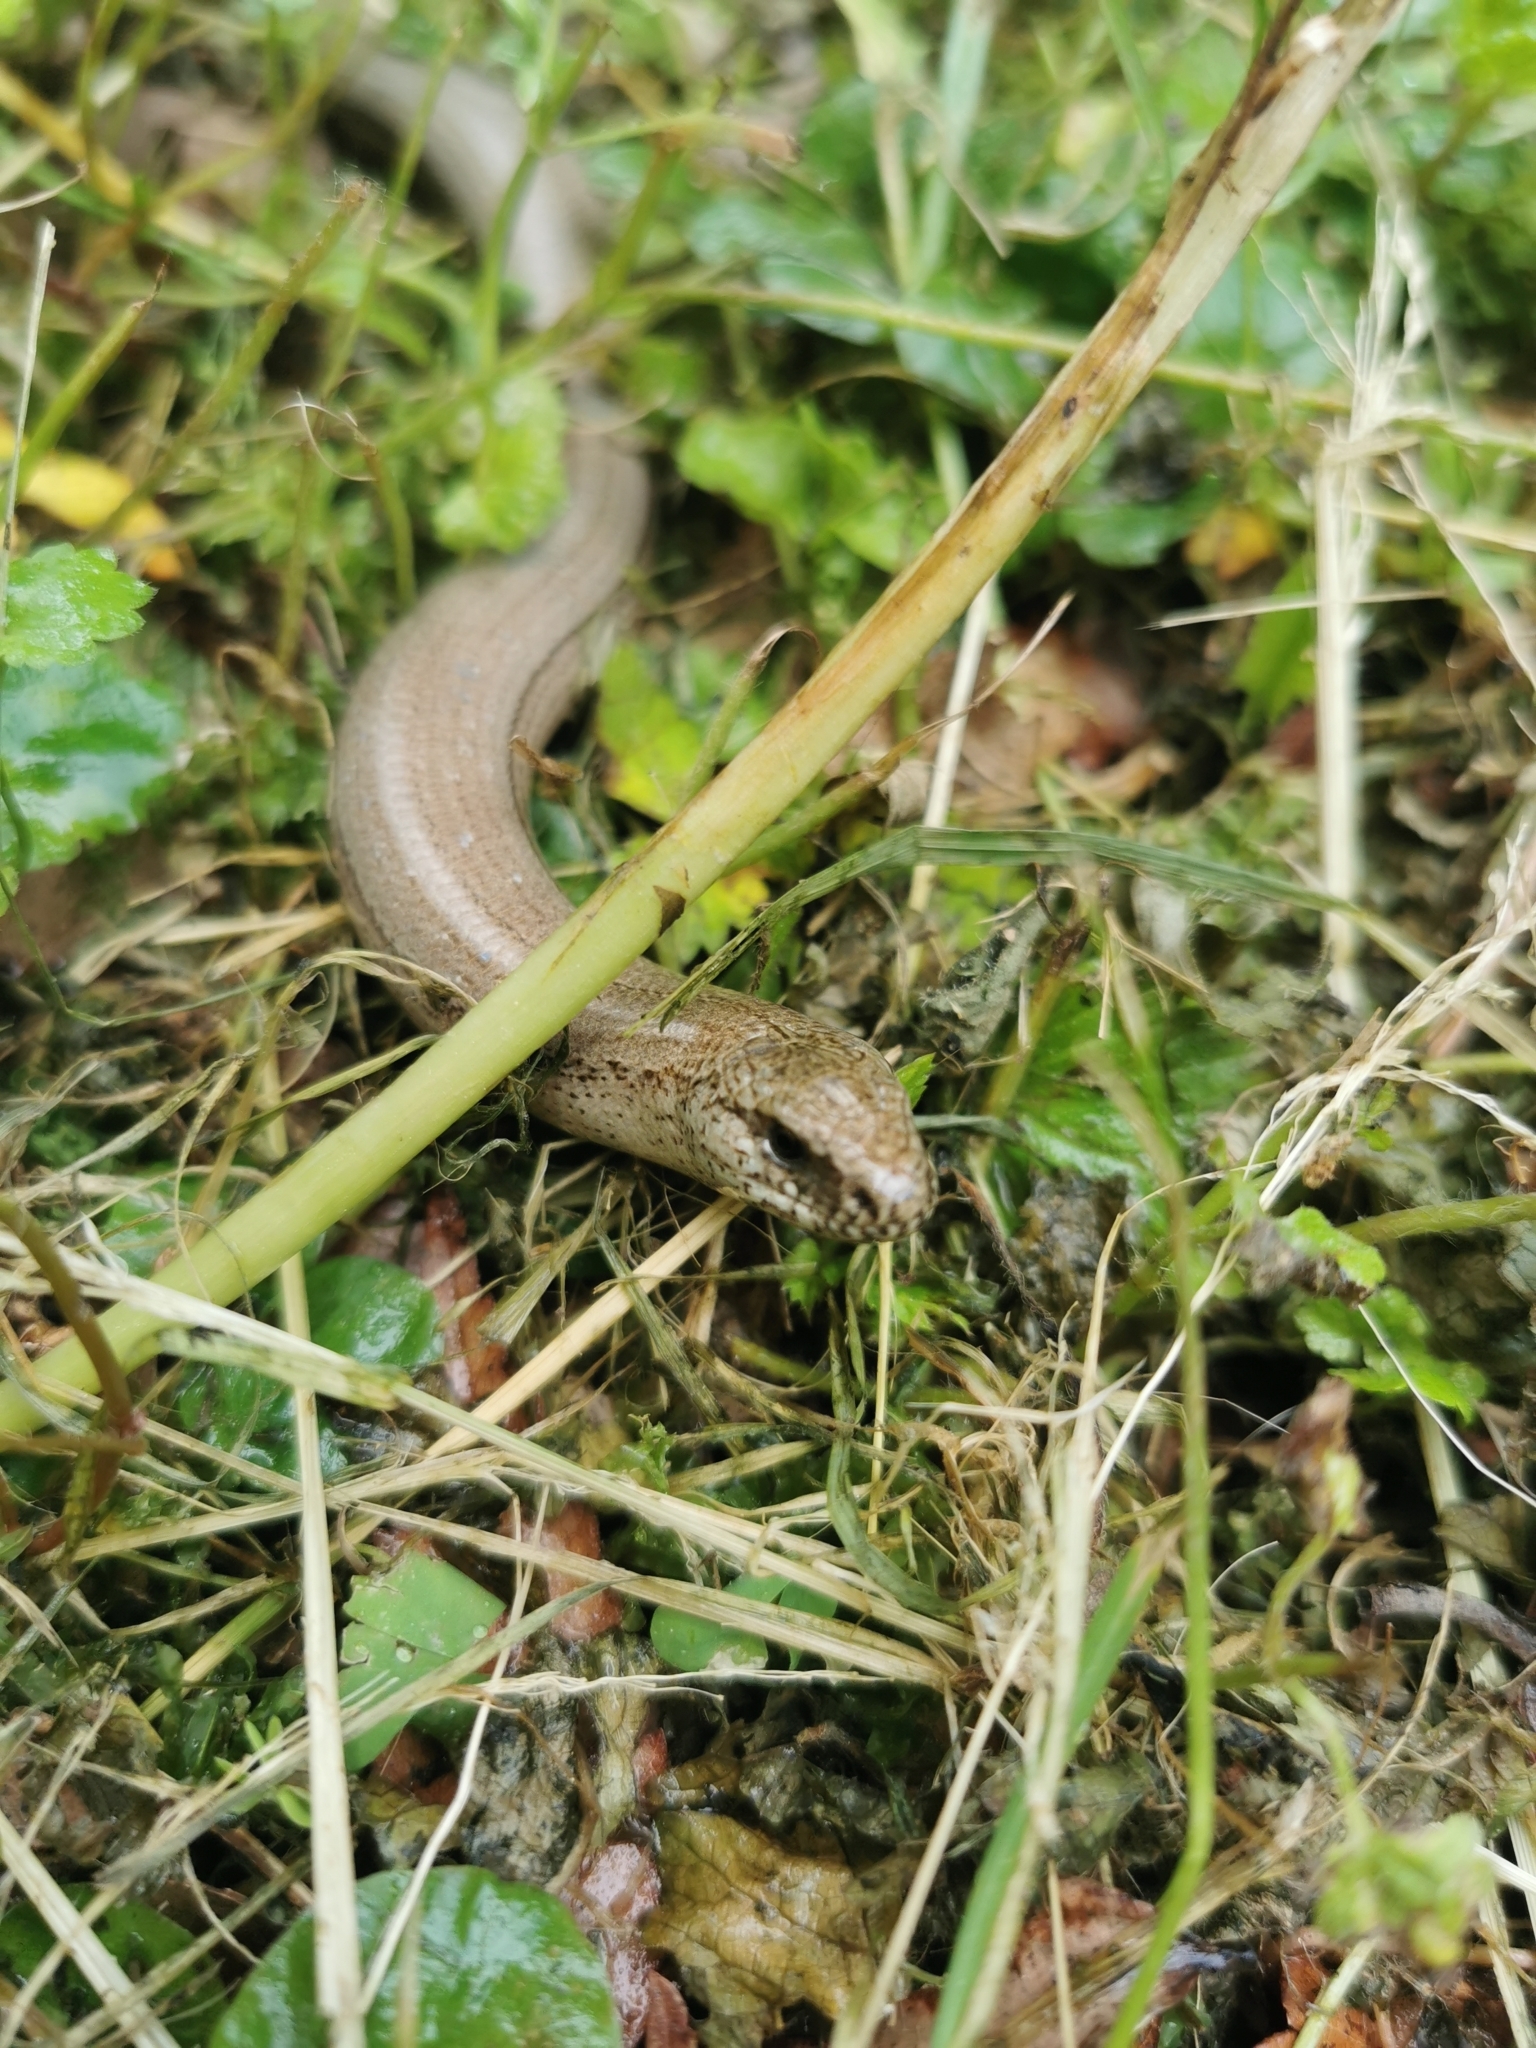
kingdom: Animalia
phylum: Chordata
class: Squamata
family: Anguidae
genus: Anguis
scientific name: Anguis fragilis
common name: Slow worm
